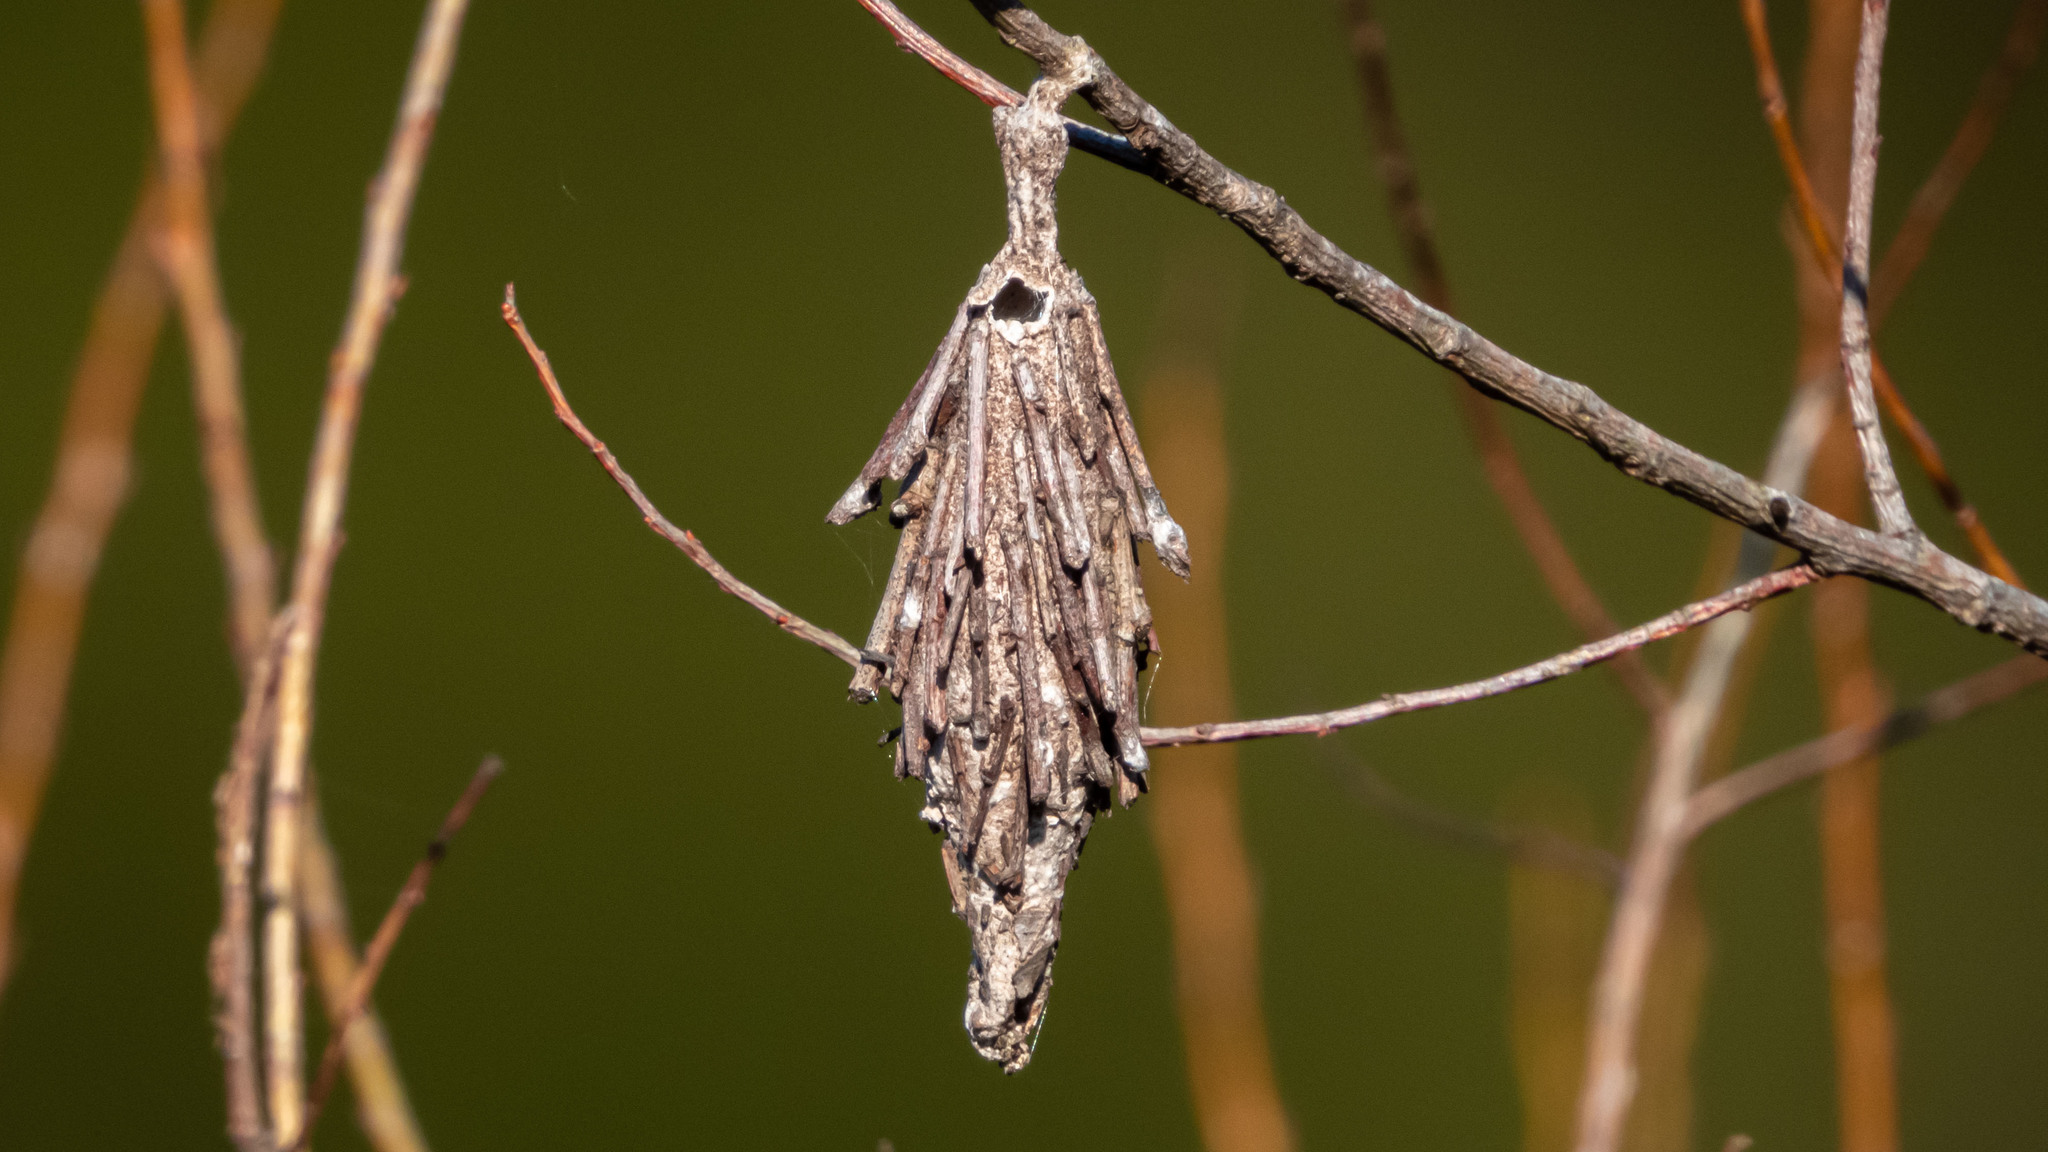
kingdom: Animalia
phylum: Arthropoda
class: Insecta
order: Lepidoptera
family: Psychidae
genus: Thyridopteryx
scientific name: Thyridopteryx ephemeraeformis
